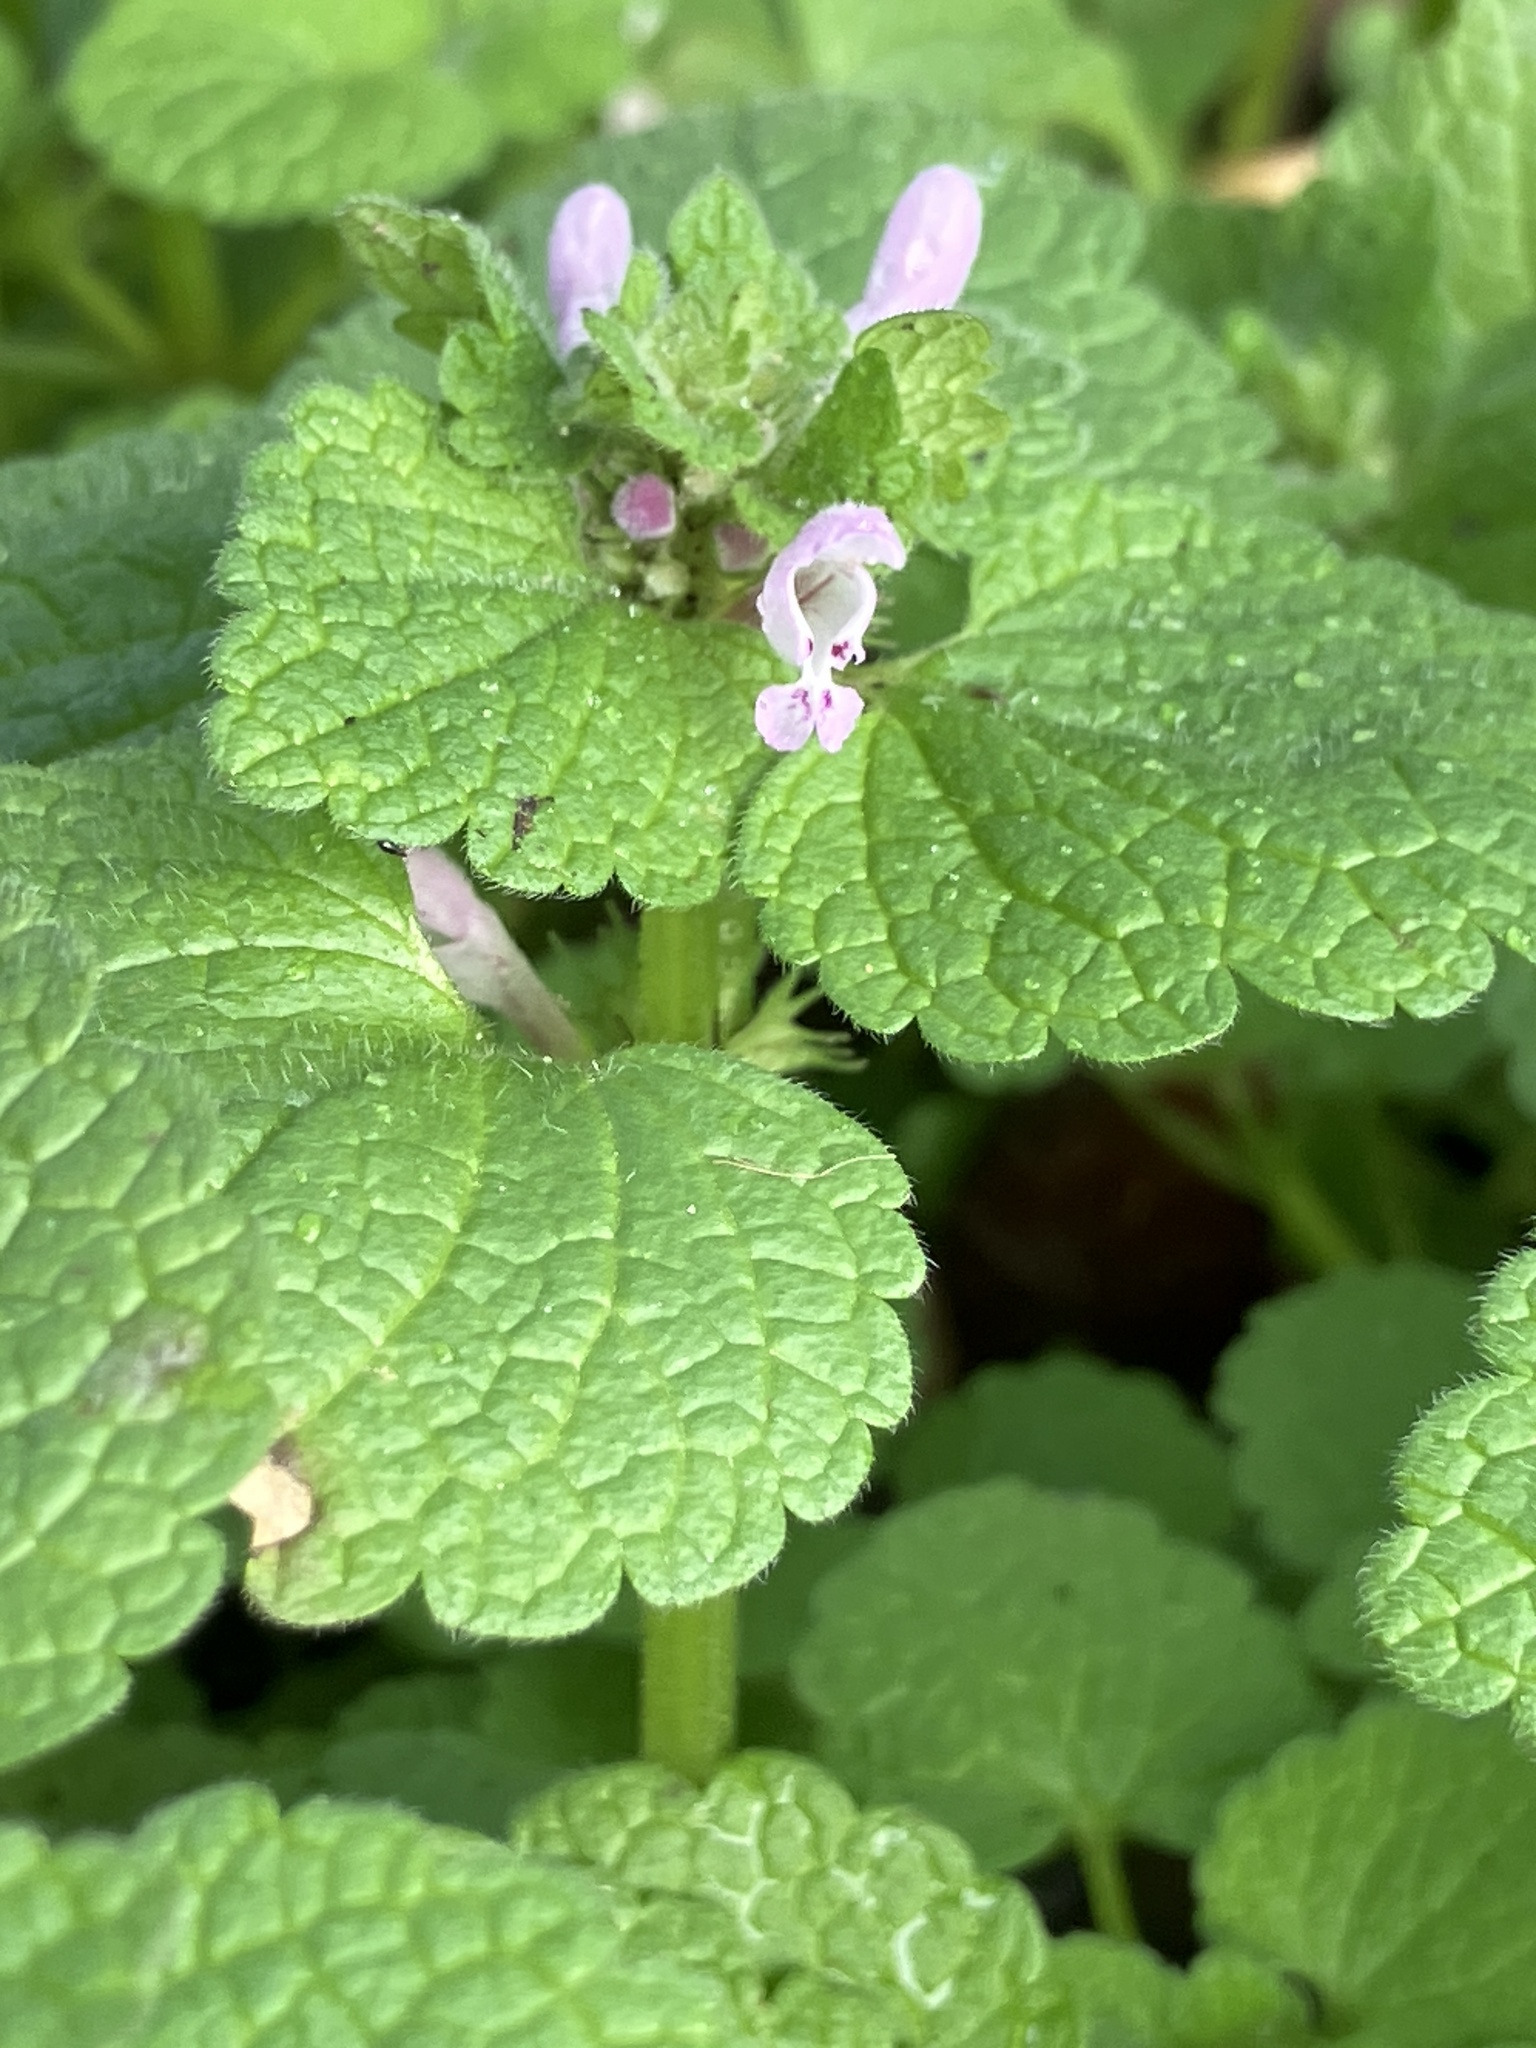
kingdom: Plantae
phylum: Tracheophyta
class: Magnoliopsida
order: Lamiales
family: Lamiaceae
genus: Lamium
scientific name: Lamium purpureum
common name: Red dead-nettle
